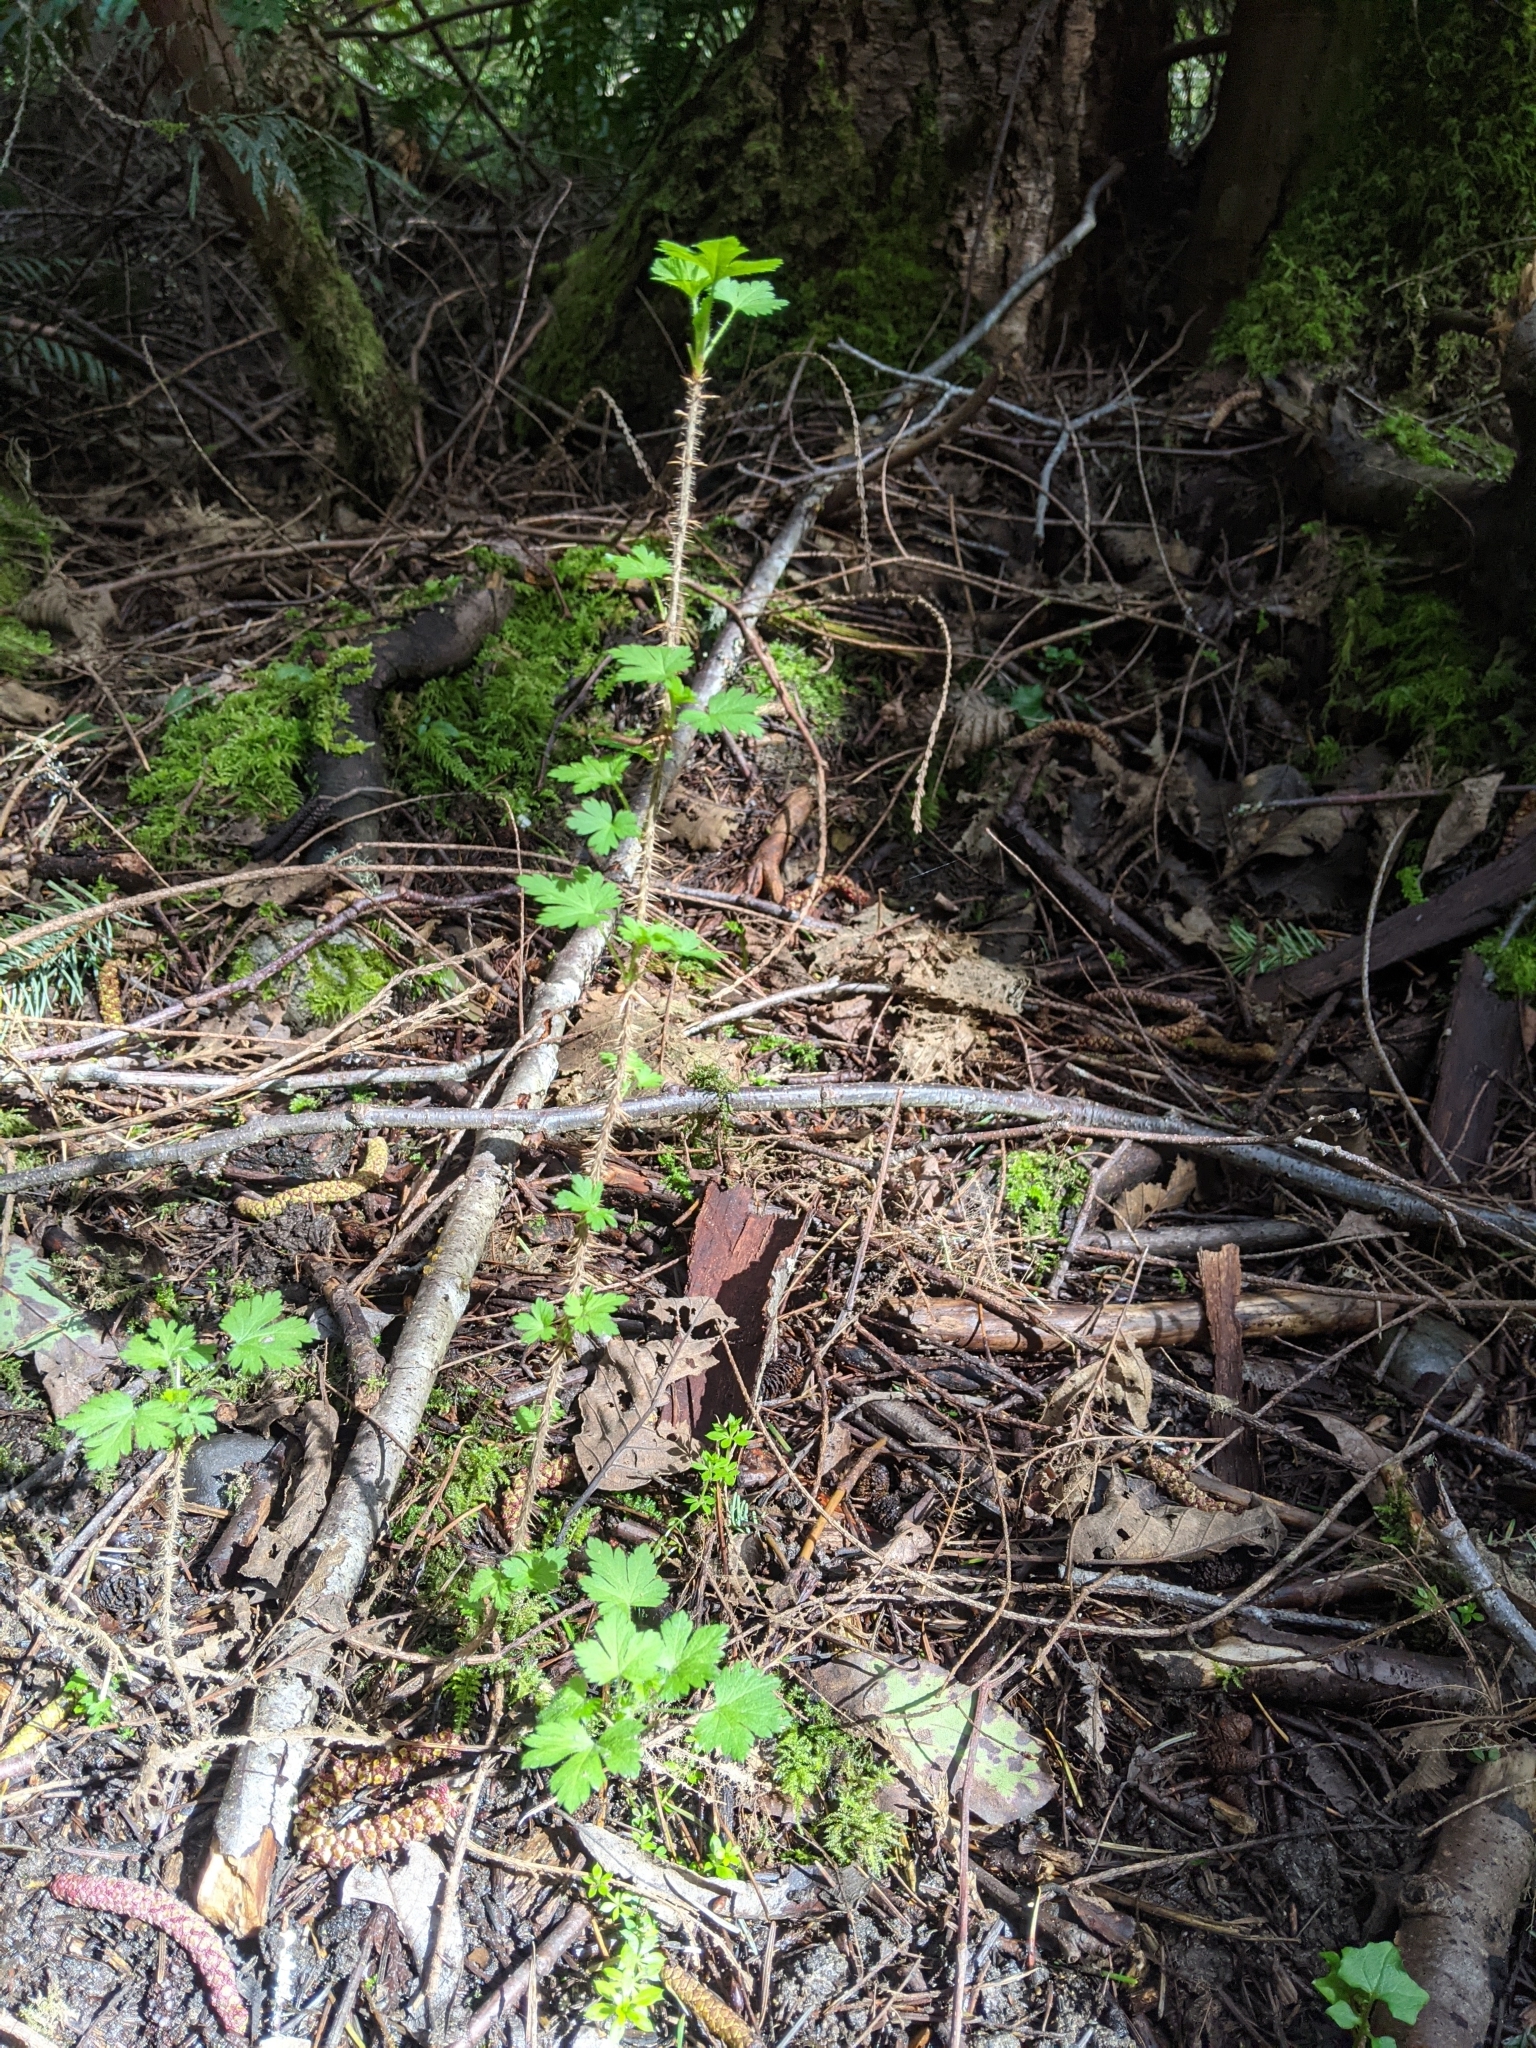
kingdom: Plantae
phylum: Tracheophyta
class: Magnoliopsida
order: Saxifragales
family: Grossulariaceae
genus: Ribes
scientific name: Ribes lacustre
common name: Black gooseberry
